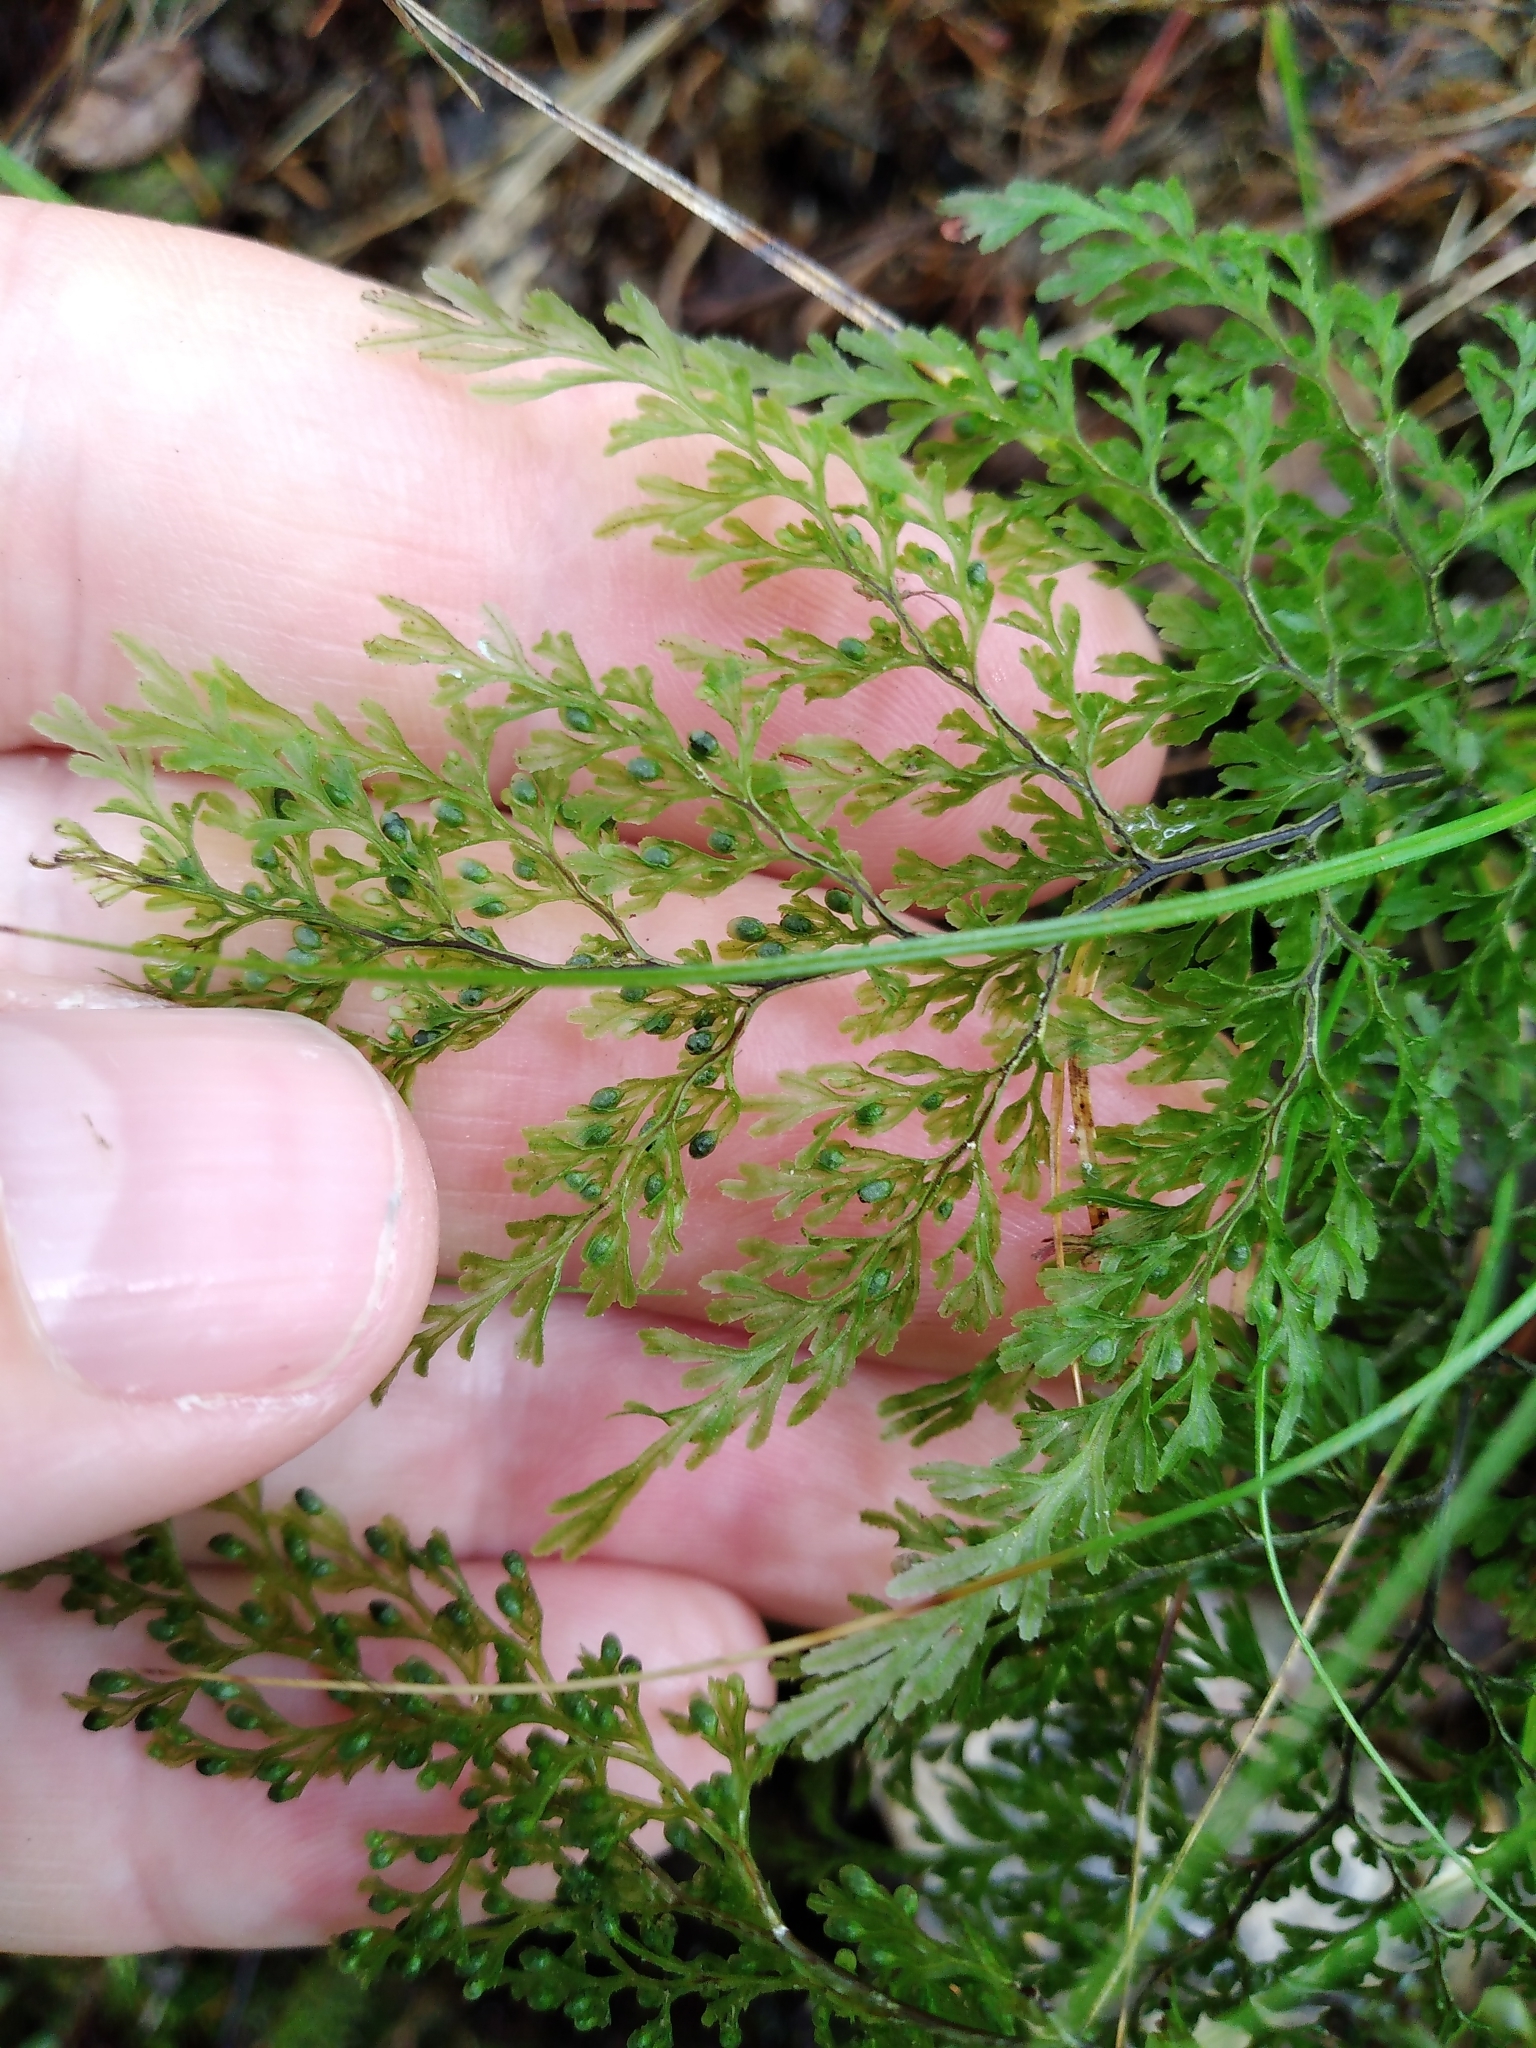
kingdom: Plantae
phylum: Tracheophyta
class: Polypodiopsida
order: Hymenophyllales
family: Hymenophyllaceae
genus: Hymenophyllum
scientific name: Hymenophyllum bivalve
